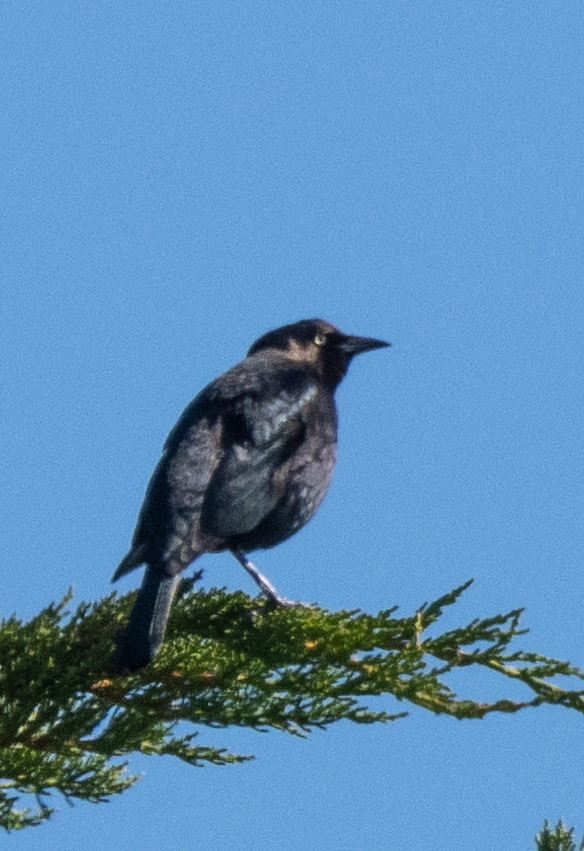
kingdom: Animalia
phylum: Chordata
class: Aves
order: Passeriformes
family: Icteridae
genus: Euphagus
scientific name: Euphagus cyanocephalus
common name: Brewer's blackbird
